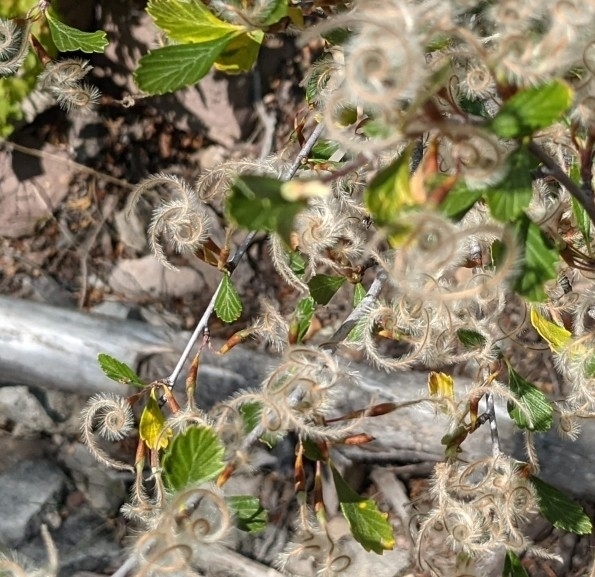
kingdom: Plantae
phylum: Tracheophyta
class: Magnoliopsida
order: Rosales
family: Rosaceae
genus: Cercocarpus
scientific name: Cercocarpus montanus
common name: Alder-leaf cercocarpus
